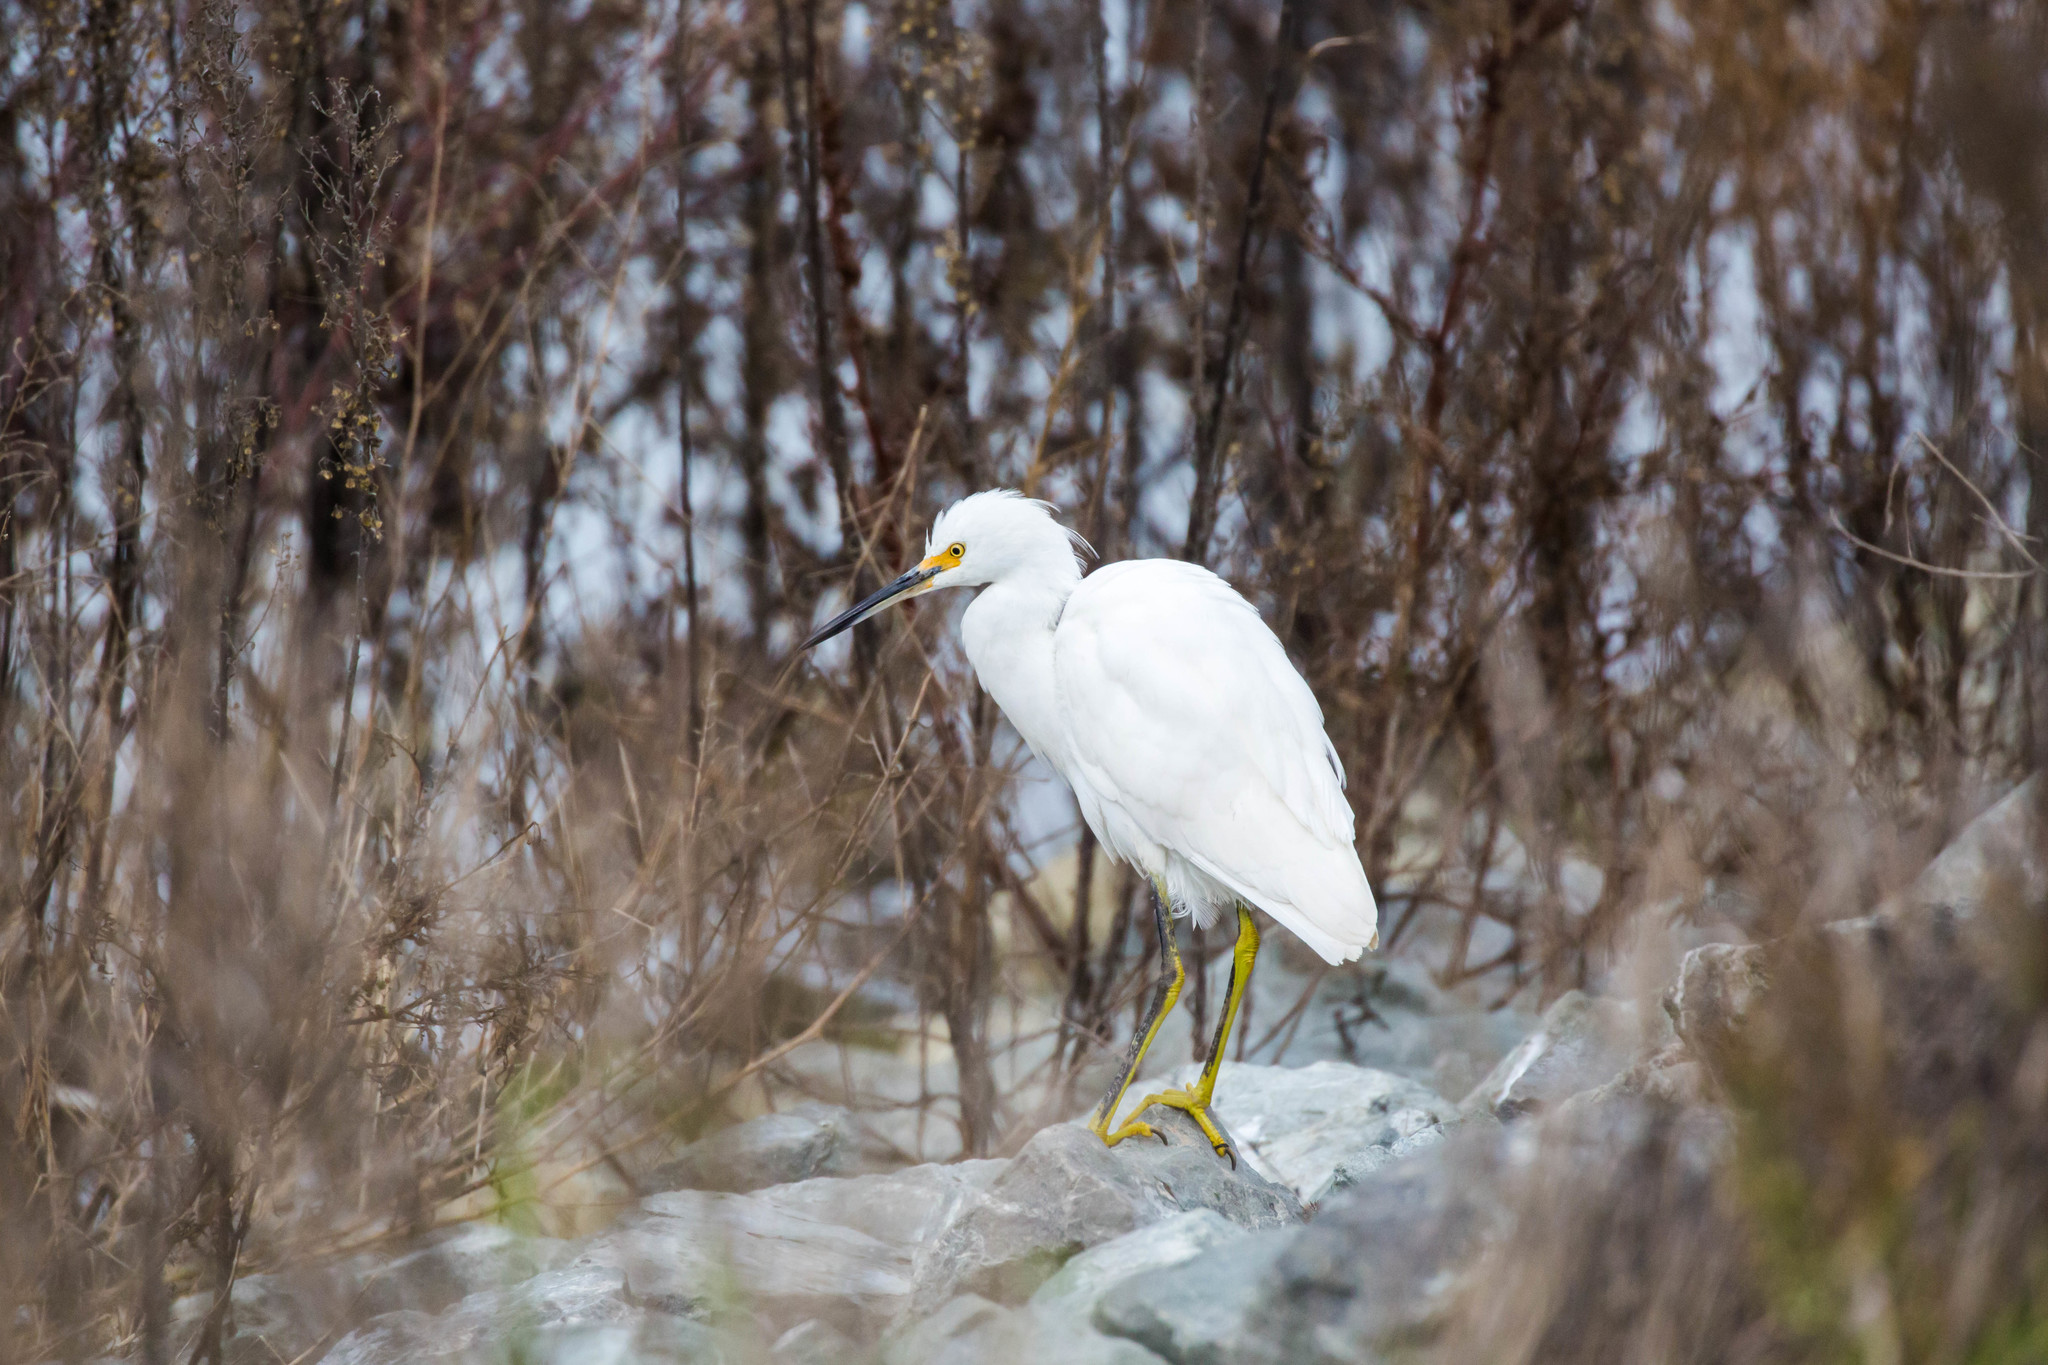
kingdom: Animalia
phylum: Chordata
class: Aves
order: Pelecaniformes
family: Ardeidae
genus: Egretta
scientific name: Egretta thula
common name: Snowy egret
